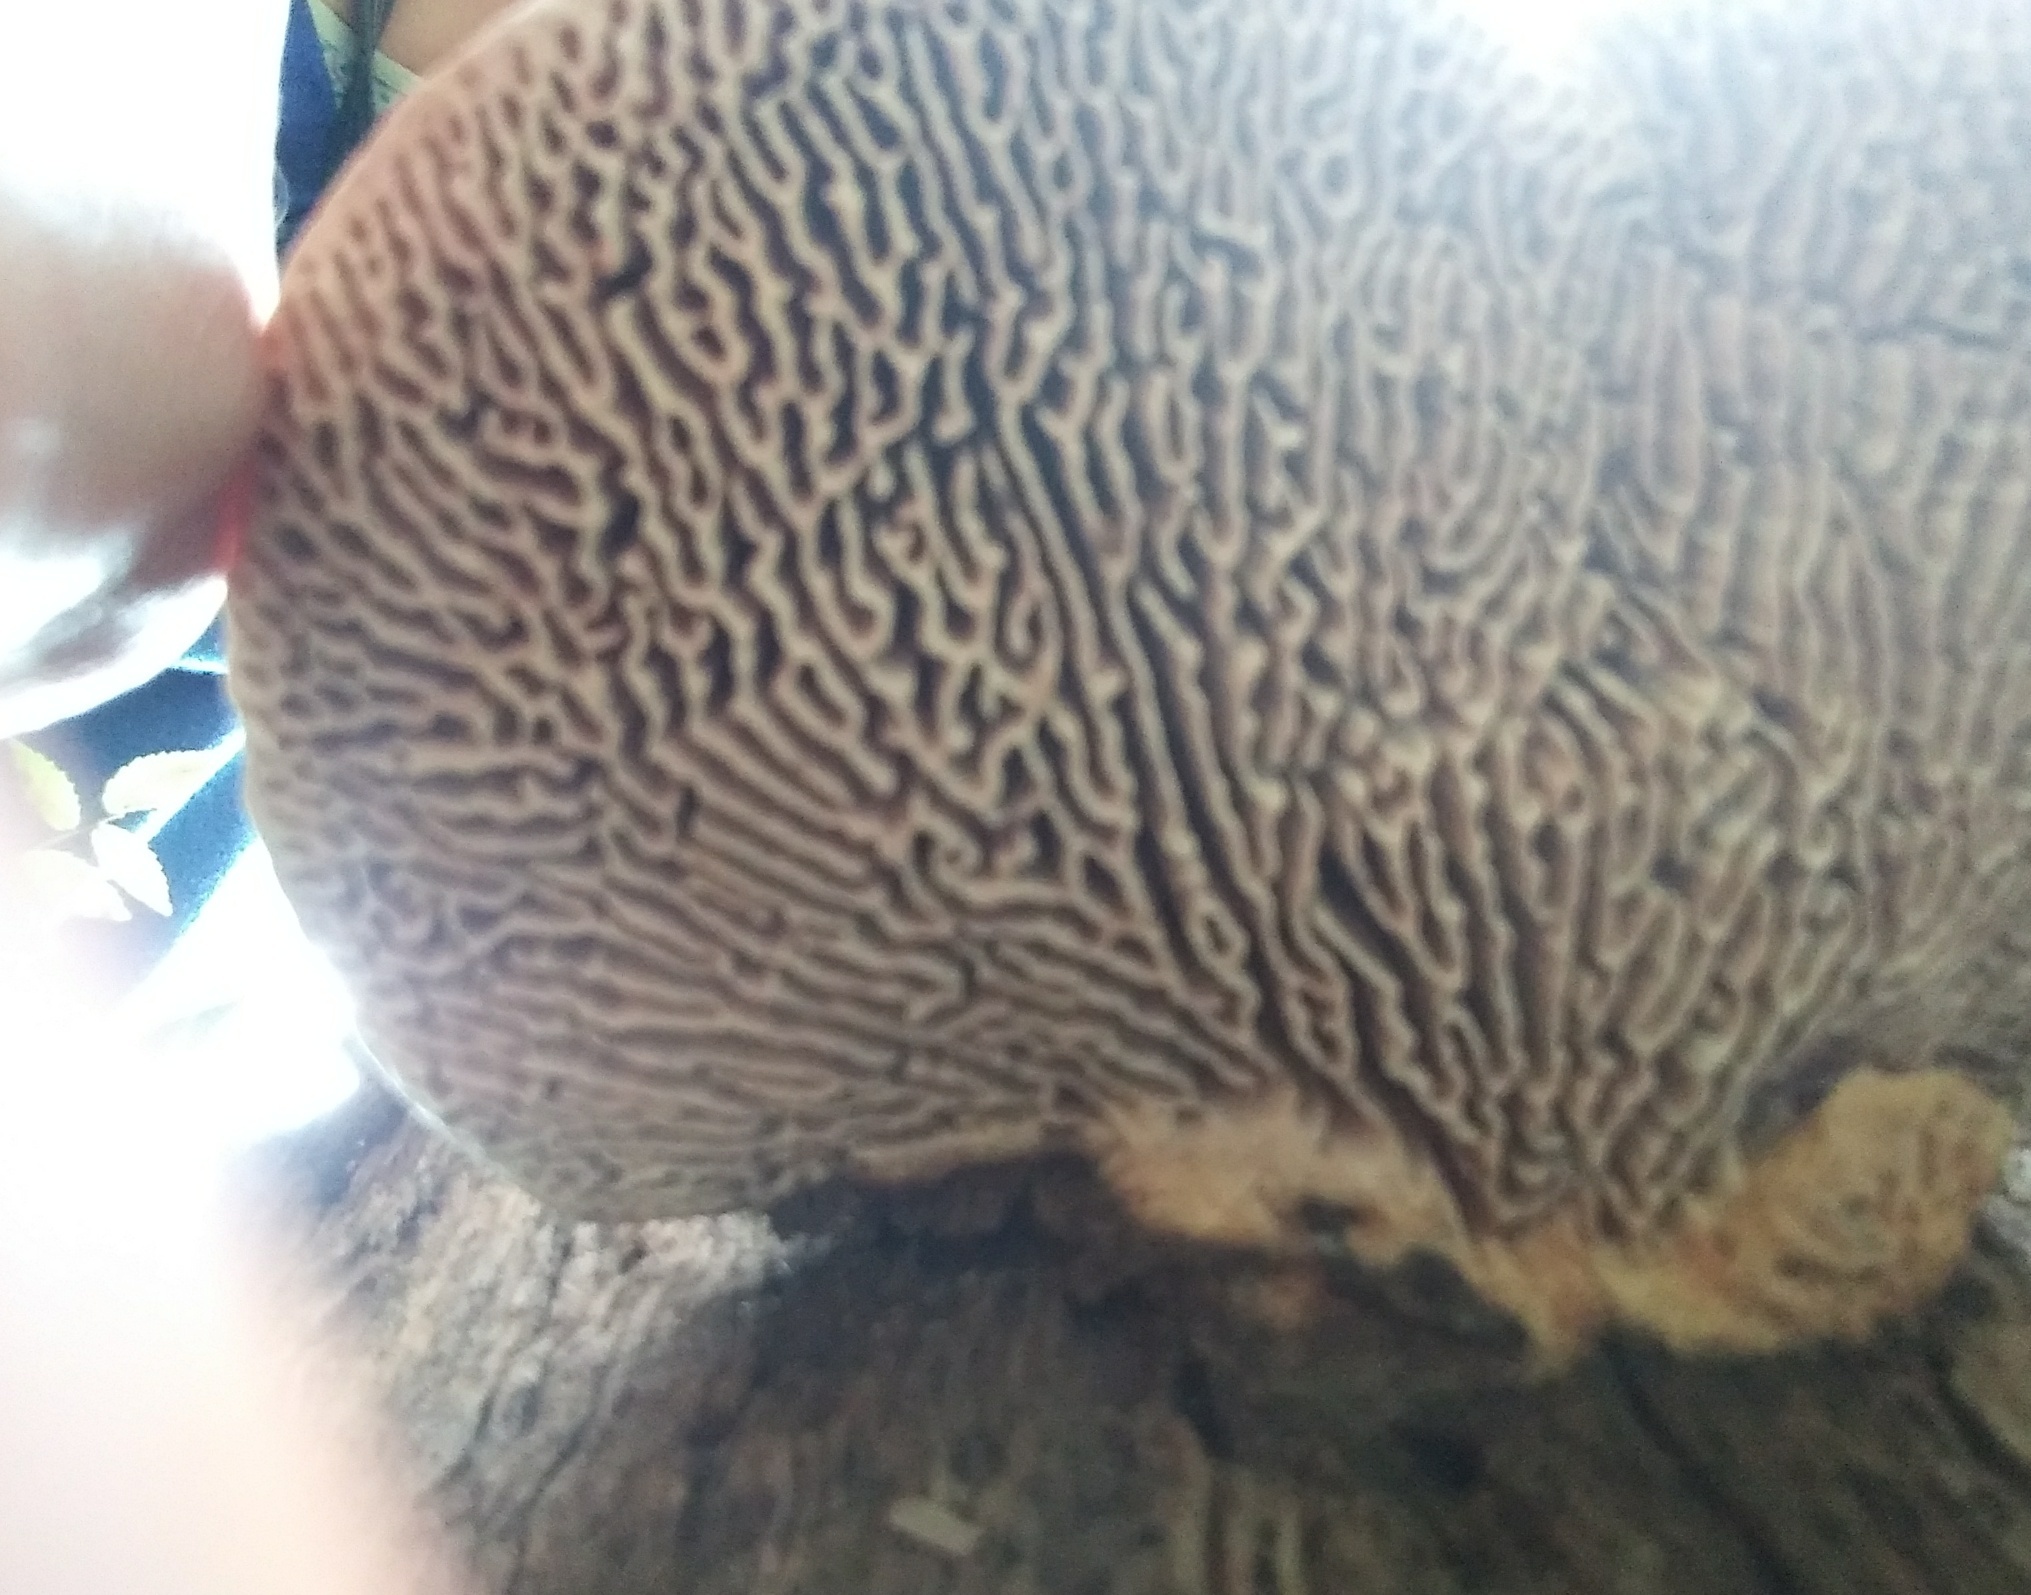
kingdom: Fungi
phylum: Basidiomycota
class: Agaricomycetes
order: Polyporales
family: Fomitopsidaceae
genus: Fomitopsis
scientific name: Fomitopsis
